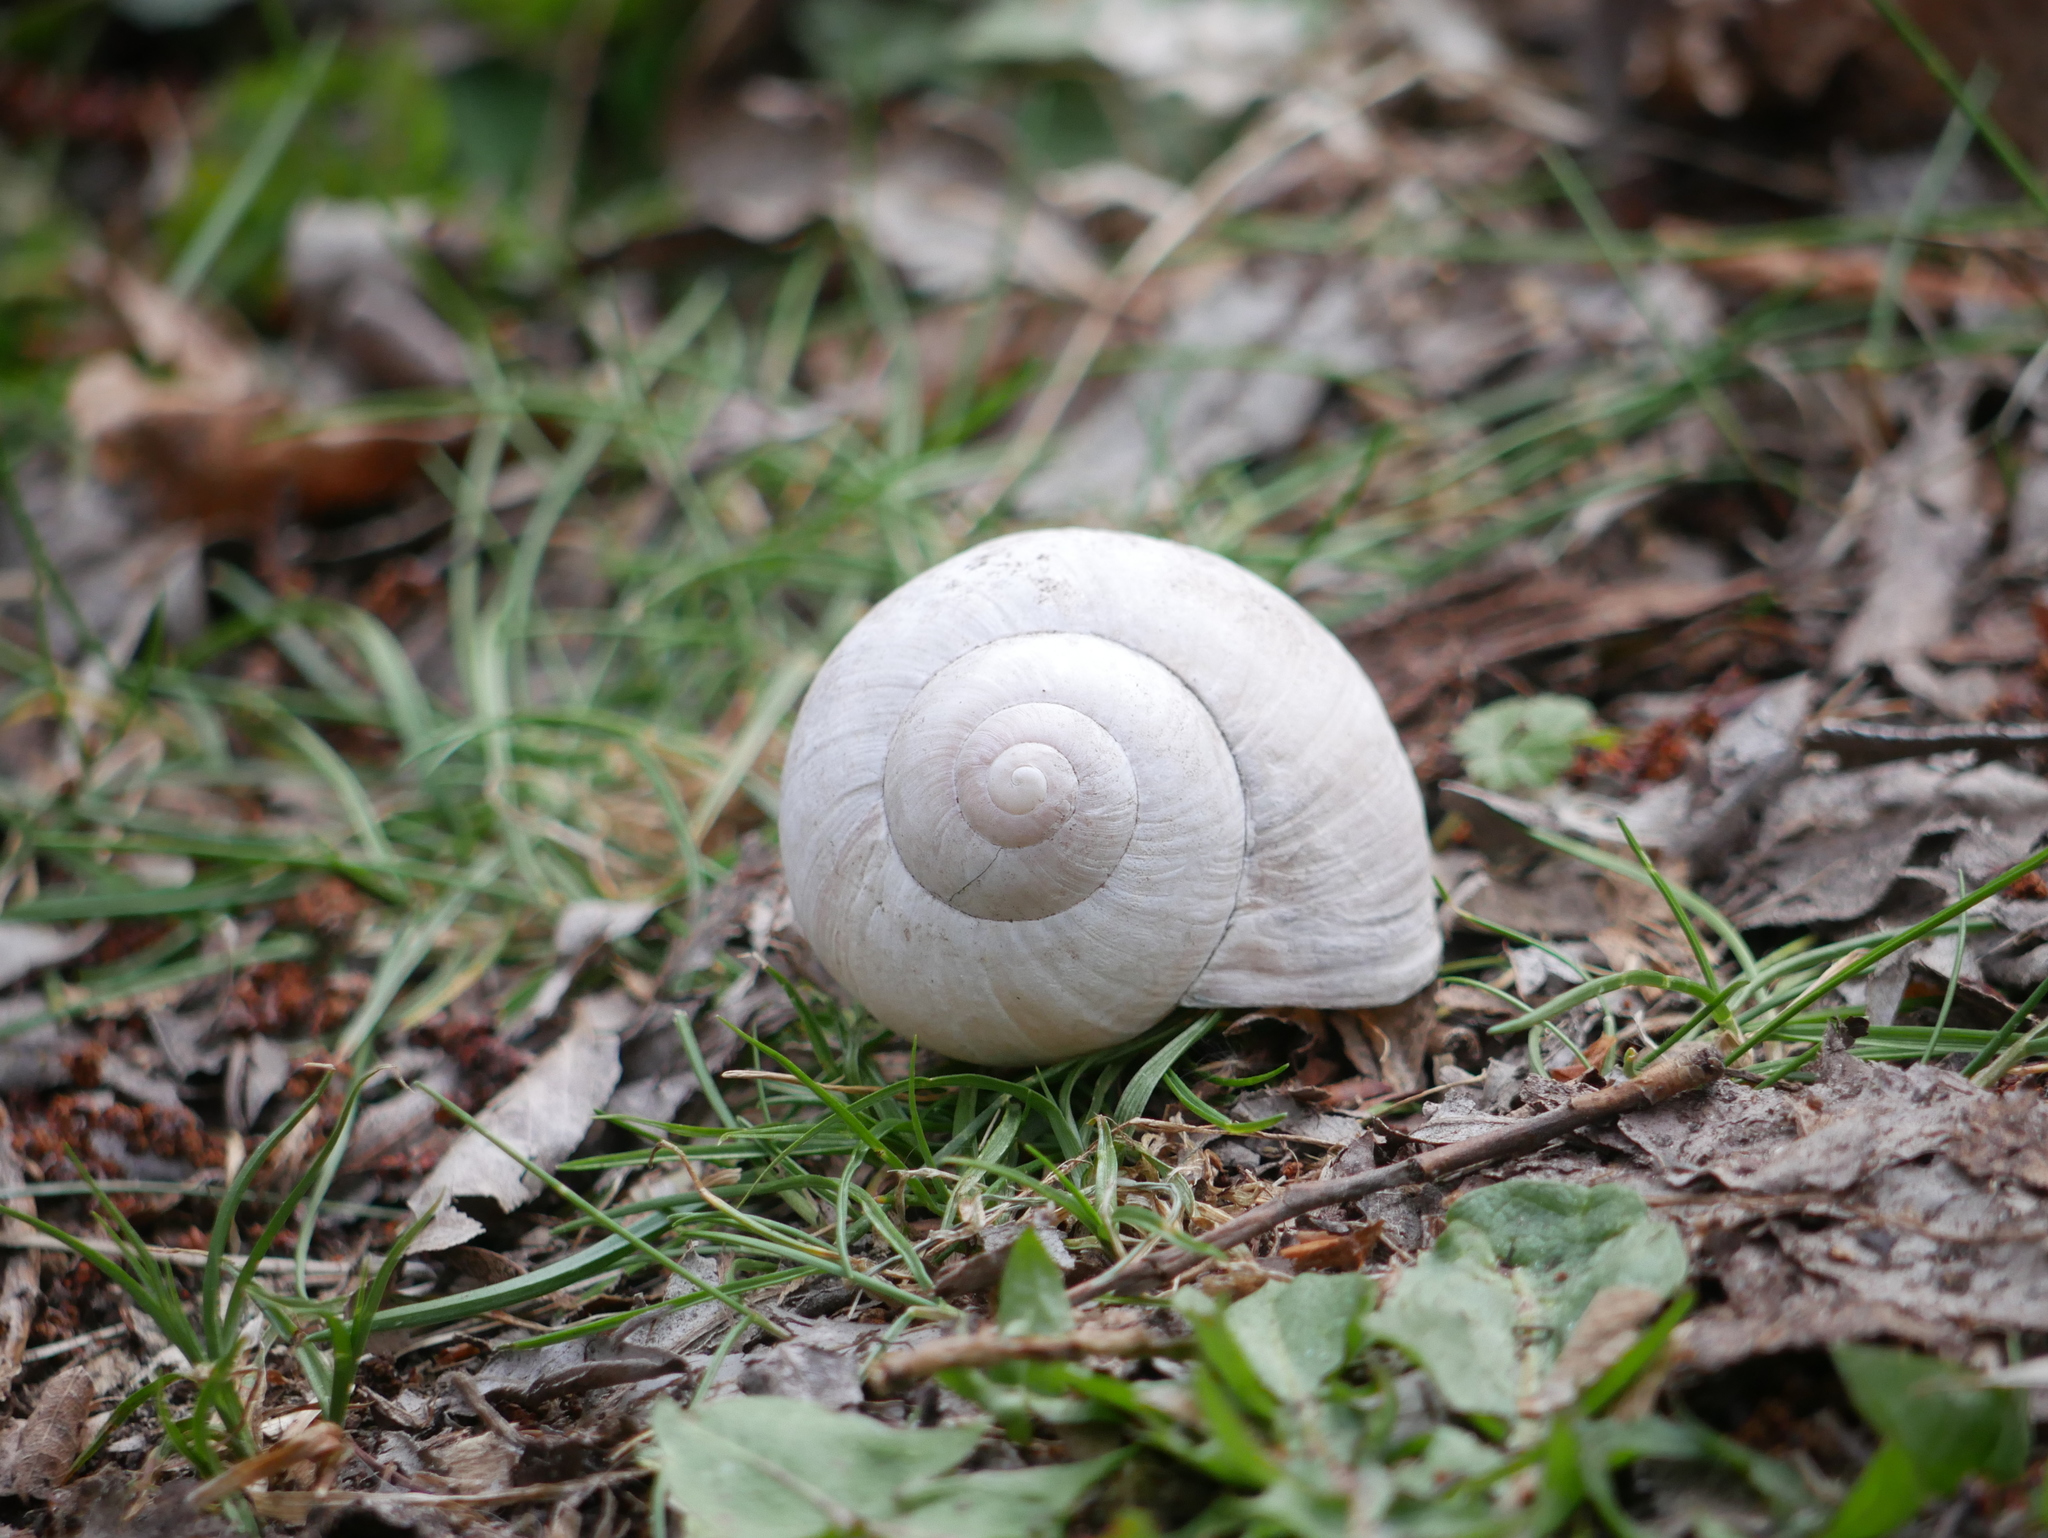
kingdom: Animalia
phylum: Mollusca
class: Gastropoda
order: Stylommatophora
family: Helicidae
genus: Helix
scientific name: Helix pomatia
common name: Roman snail
